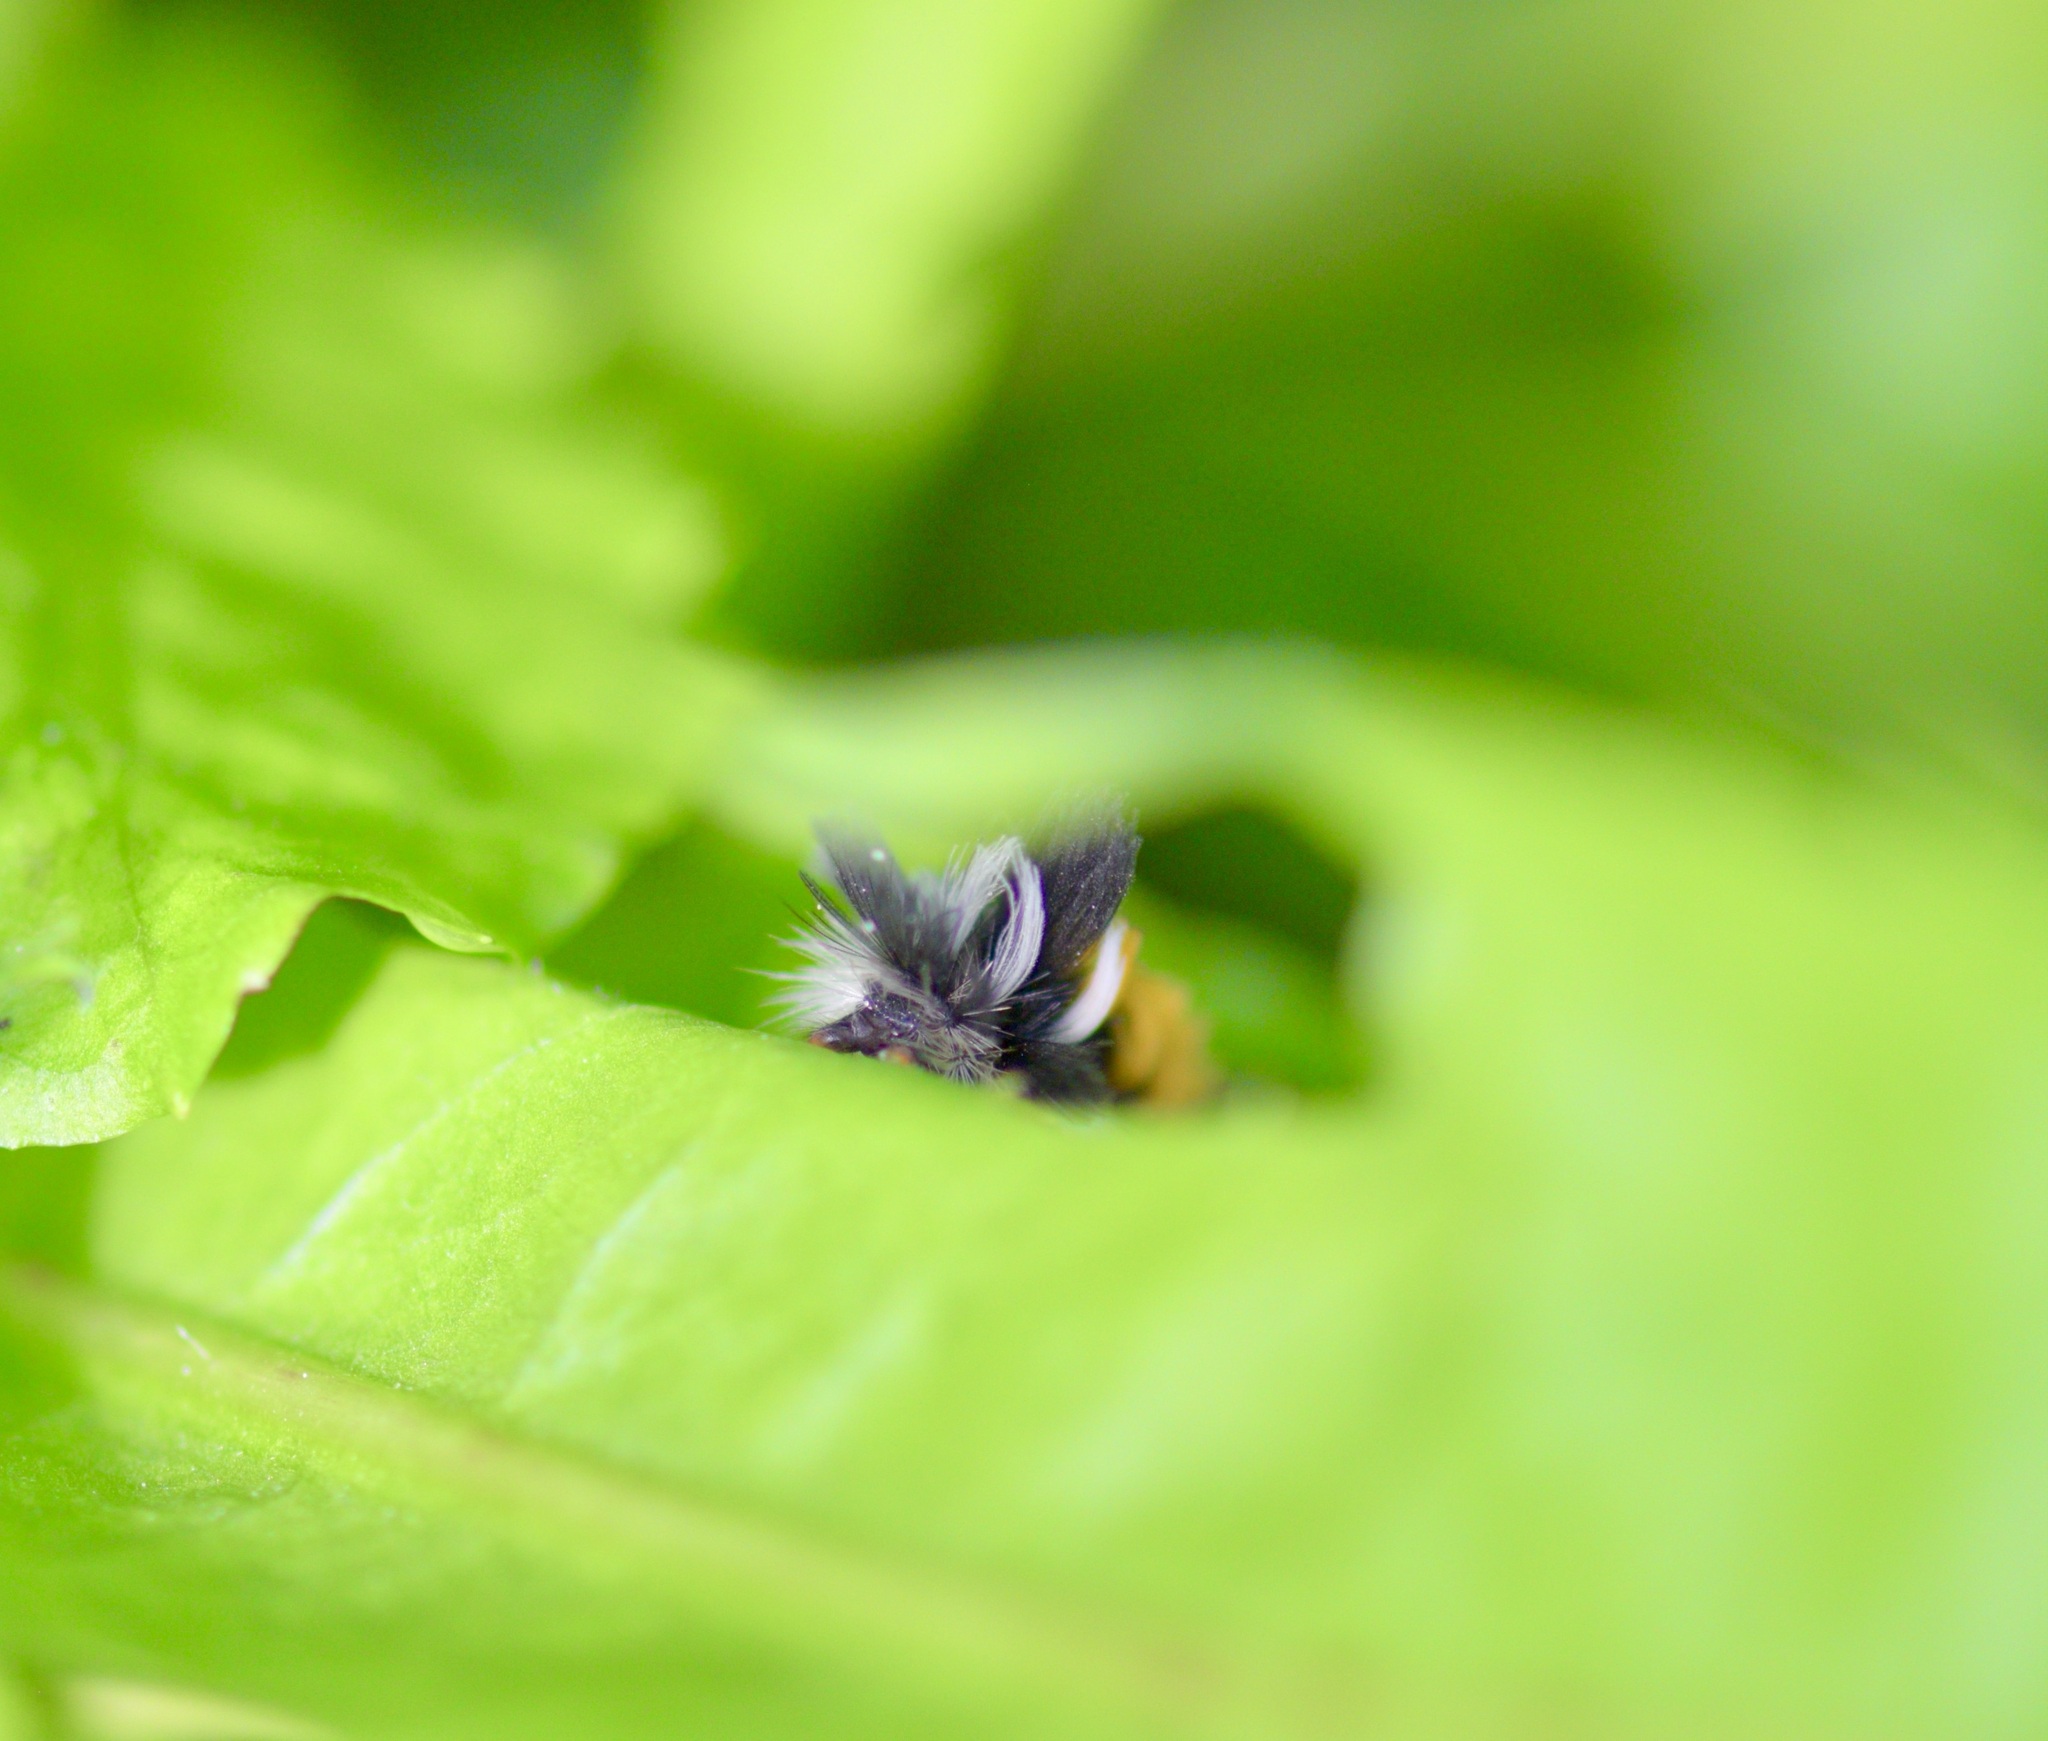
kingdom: Animalia
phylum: Arthropoda
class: Insecta
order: Lepidoptera
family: Erebidae
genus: Euchaetes
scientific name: Euchaetes egle
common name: Milkweed tussock moth
